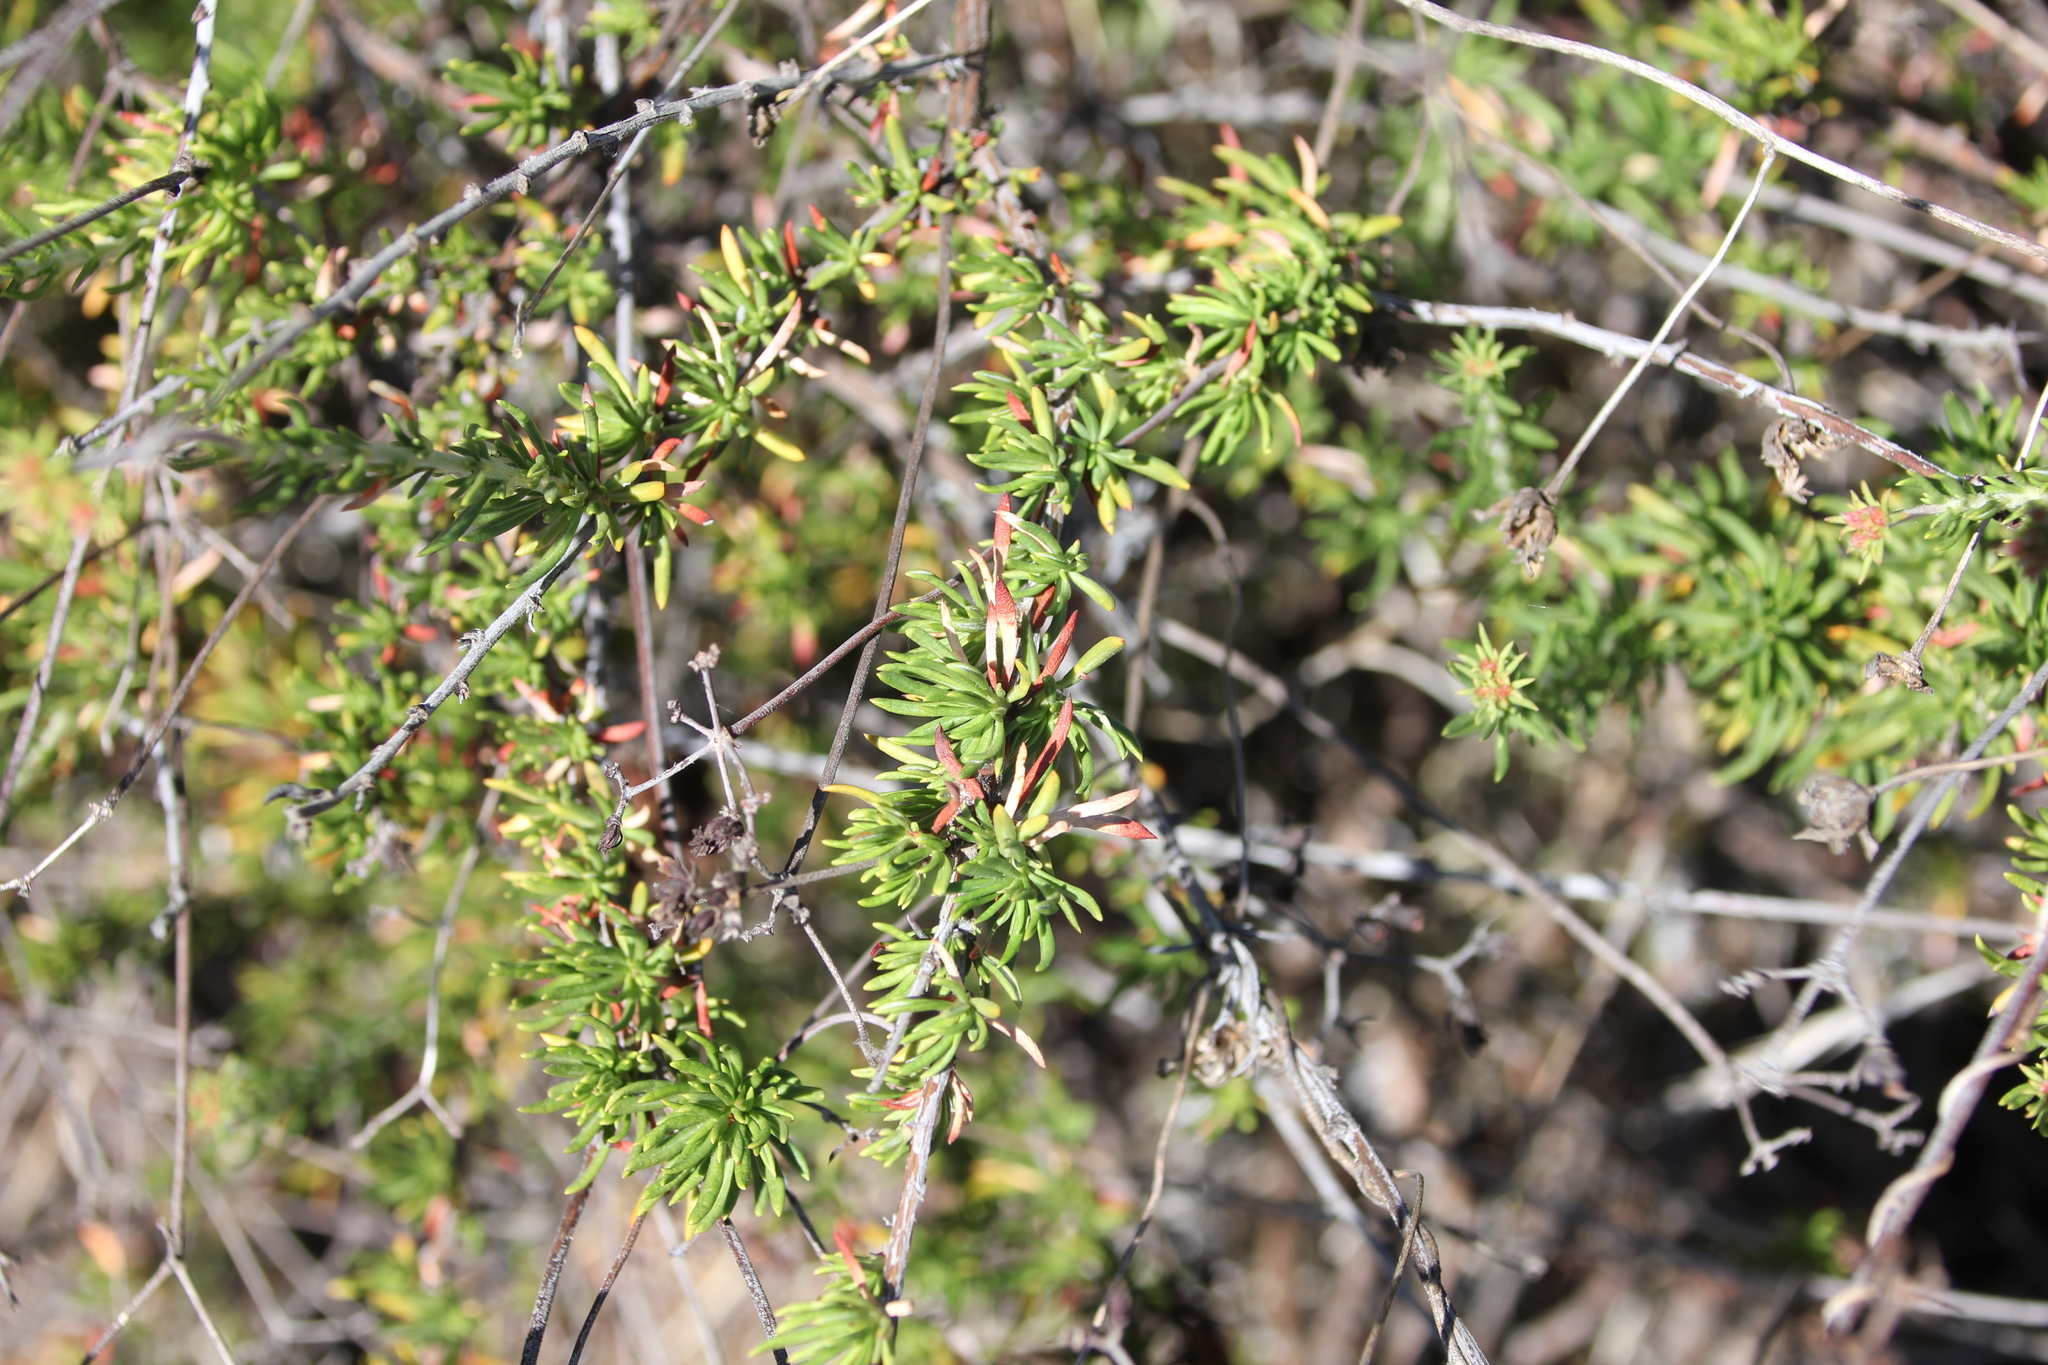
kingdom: Plantae
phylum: Tracheophyta
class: Magnoliopsida
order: Caryophyllales
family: Polygonaceae
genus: Eriogonum
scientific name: Eriogonum fasciculatum
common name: California wild buckwheat
